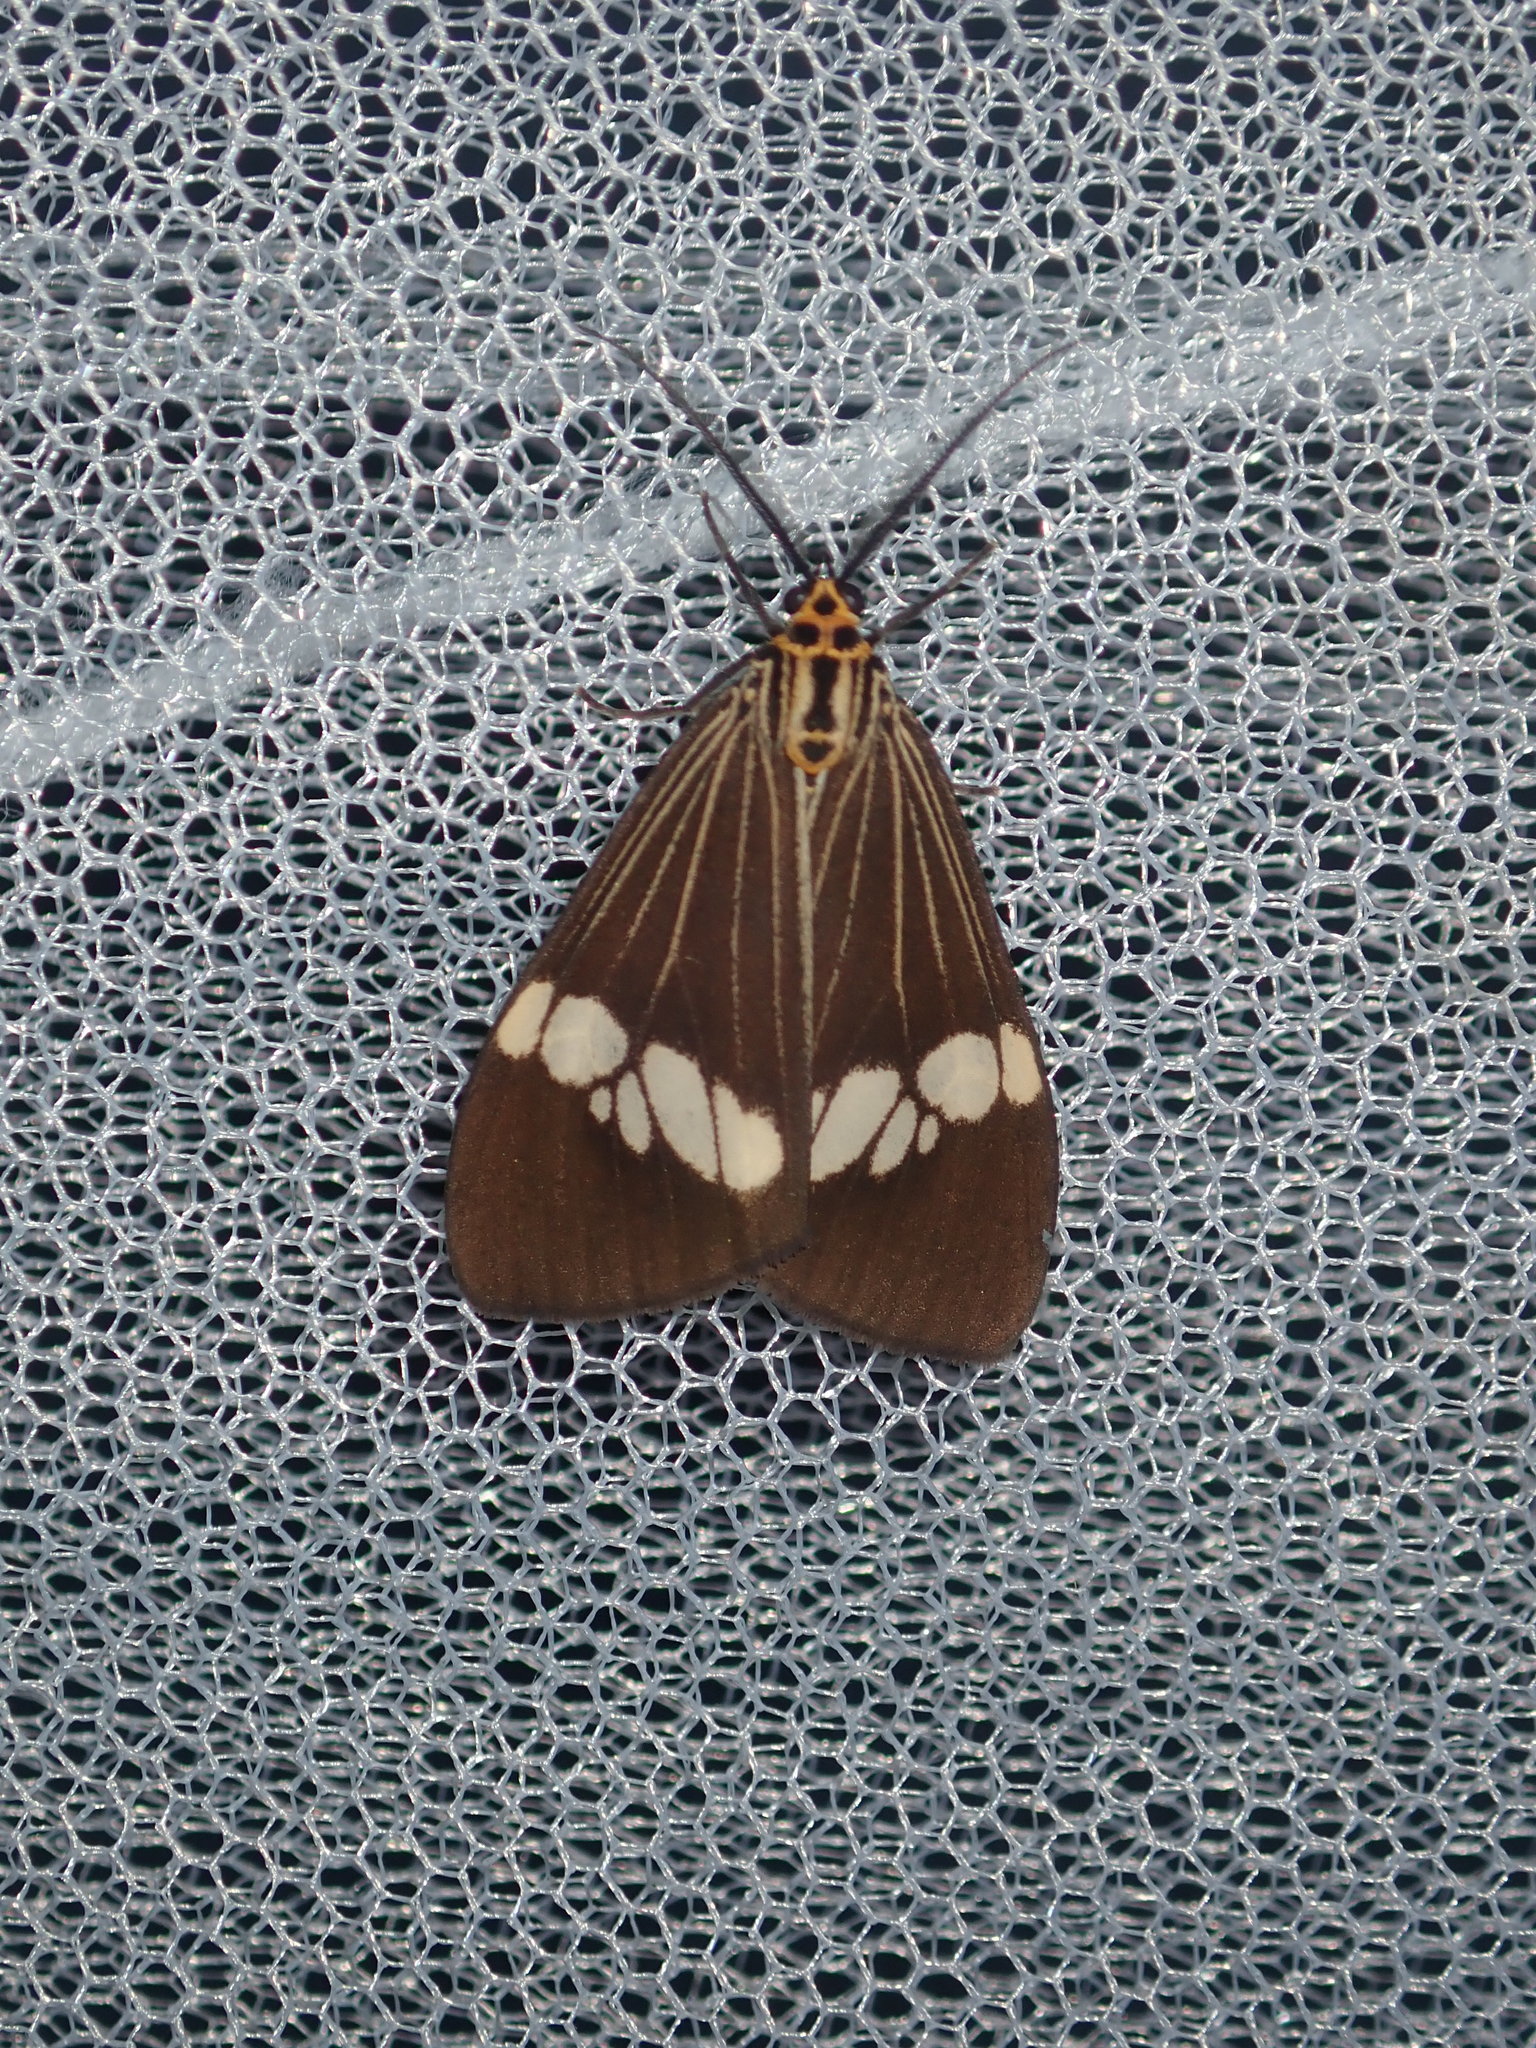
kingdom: Animalia
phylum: Arthropoda
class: Insecta
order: Lepidoptera
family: Erebidae
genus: Nyctemera
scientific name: Nyctemera baulus
